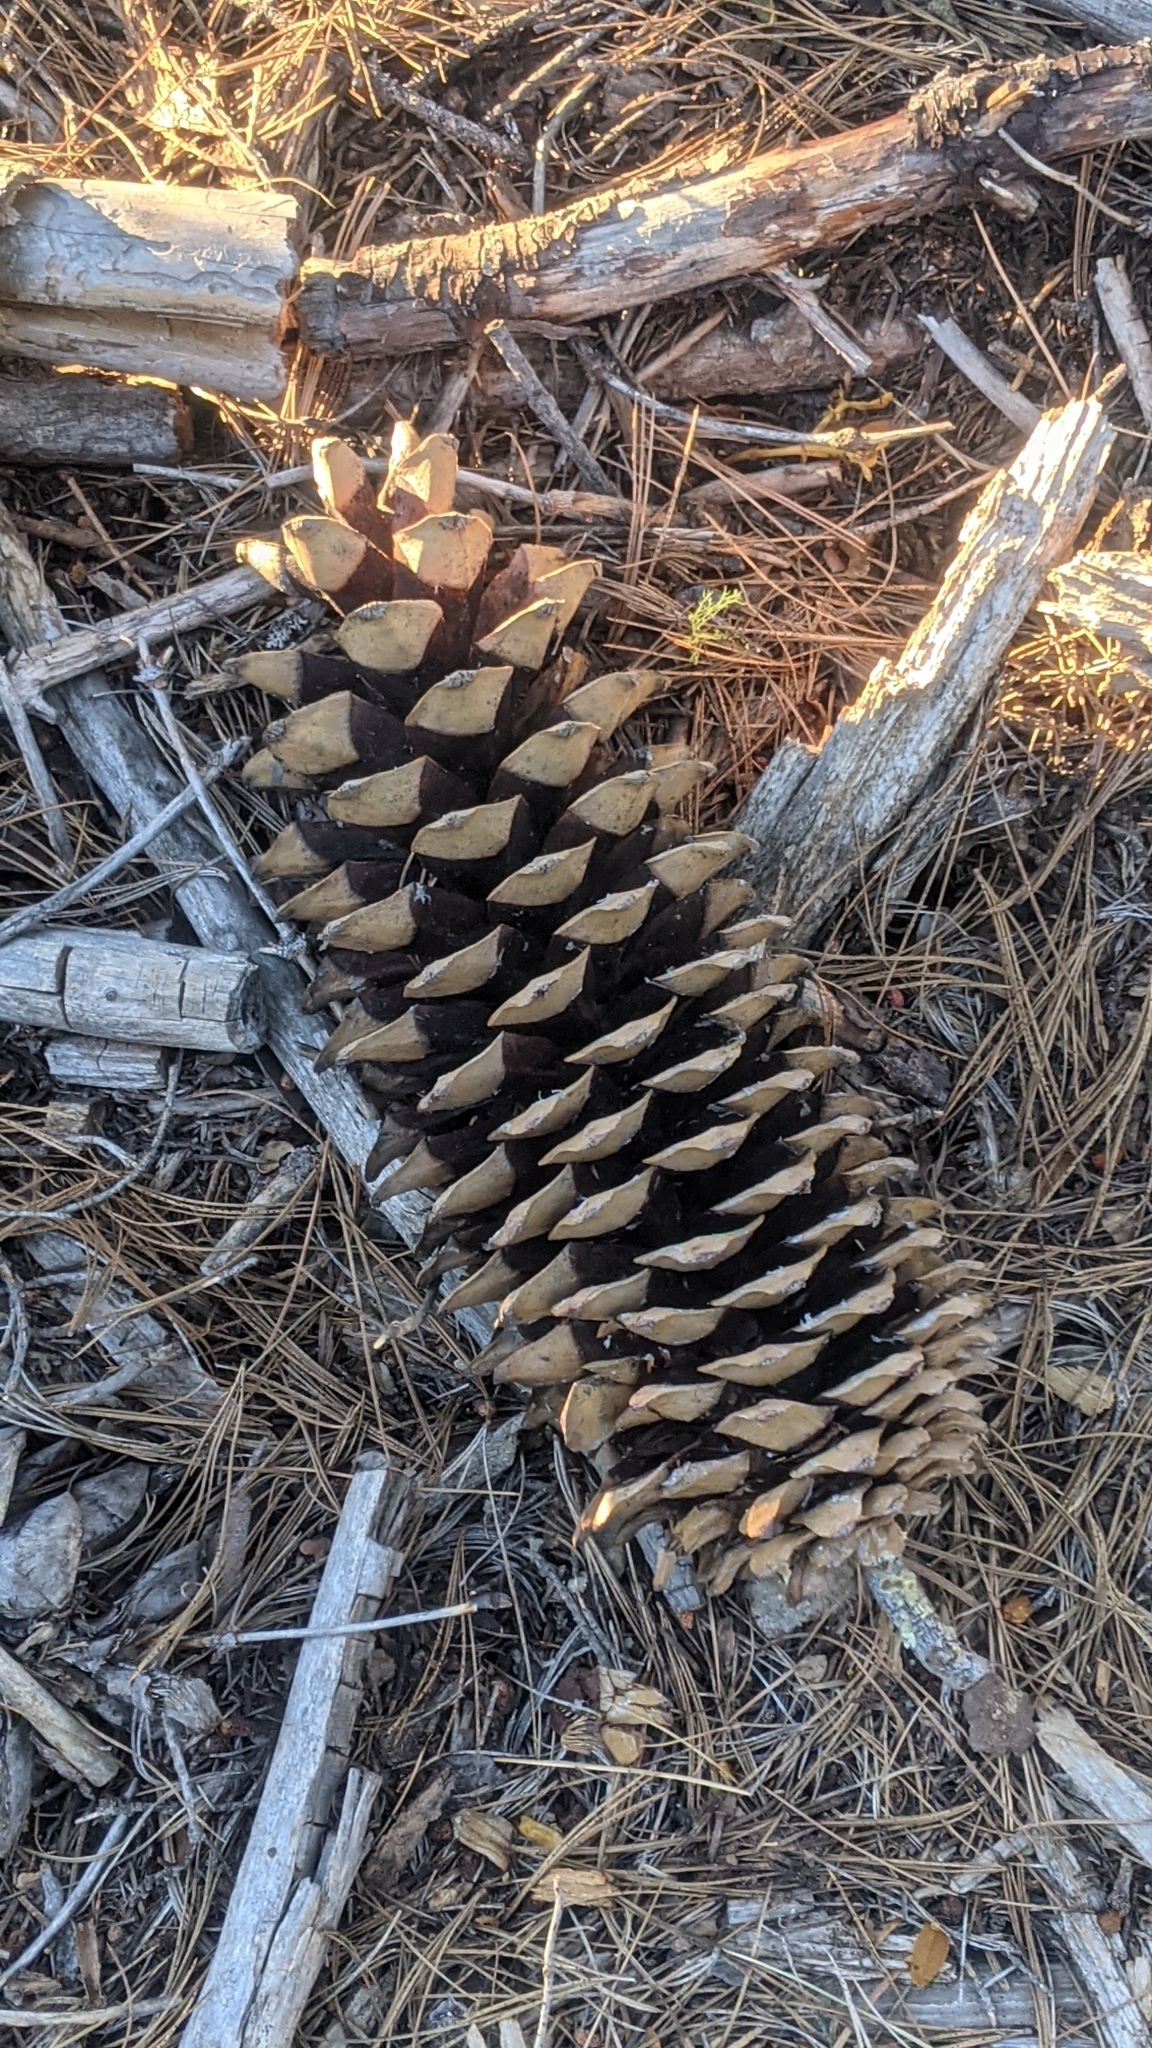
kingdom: Plantae
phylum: Tracheophyta
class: Pinopsida
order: Pinales
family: Pinaceae
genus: Pinus
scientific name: Pinus lambertiana
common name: Sugar pine
